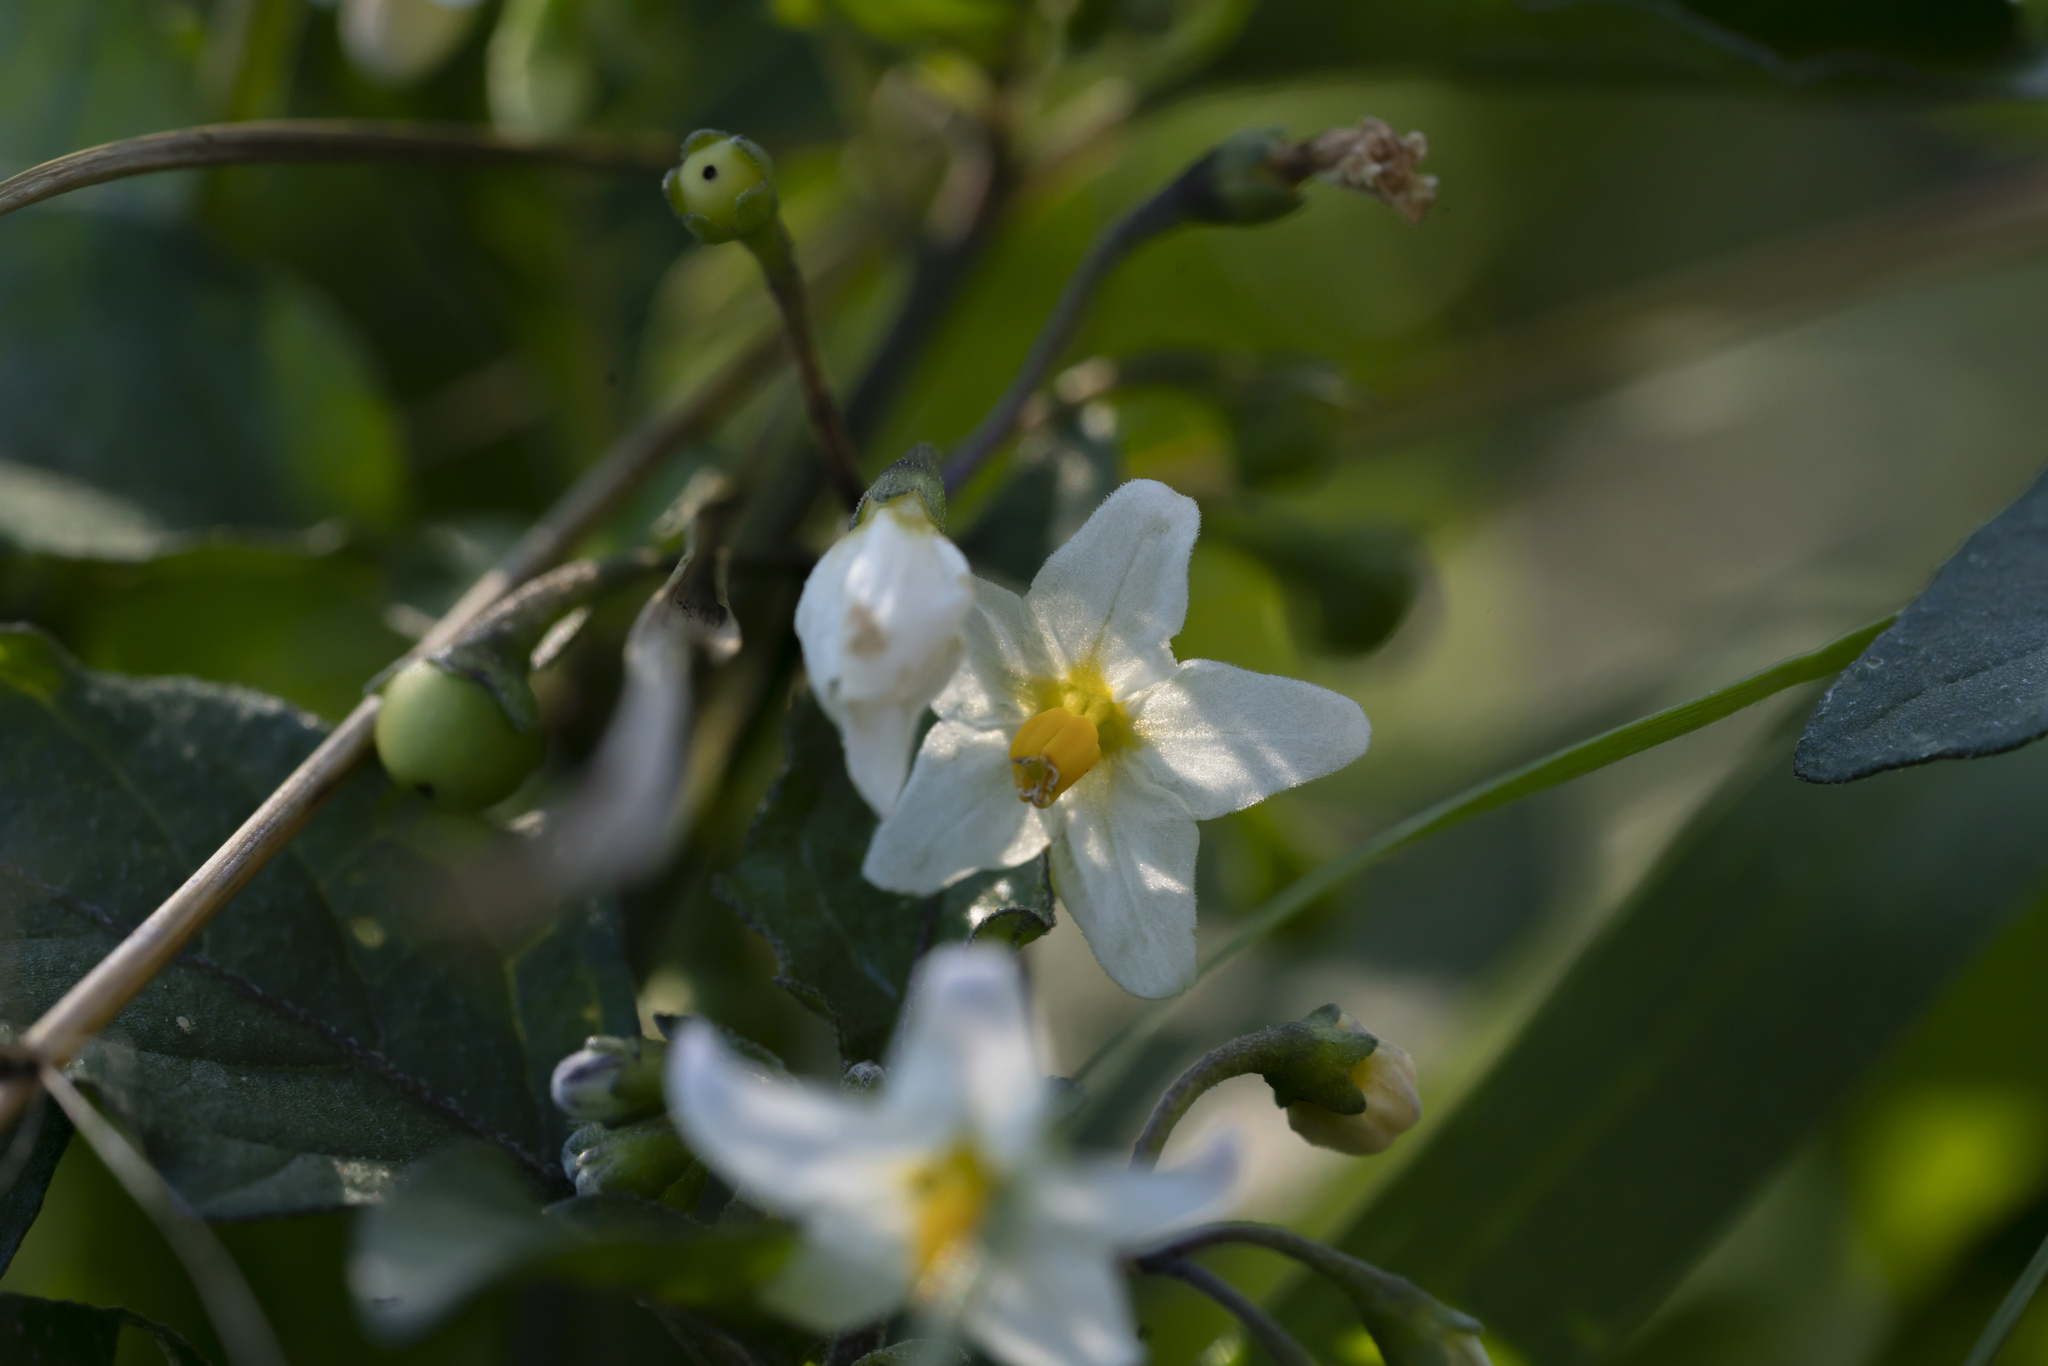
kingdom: Plantae
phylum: Tracheophyta
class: Magnoliopsida
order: Solanales
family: Solanaceae
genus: Solanum
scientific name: Solanum nigrum
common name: Black nightshade
